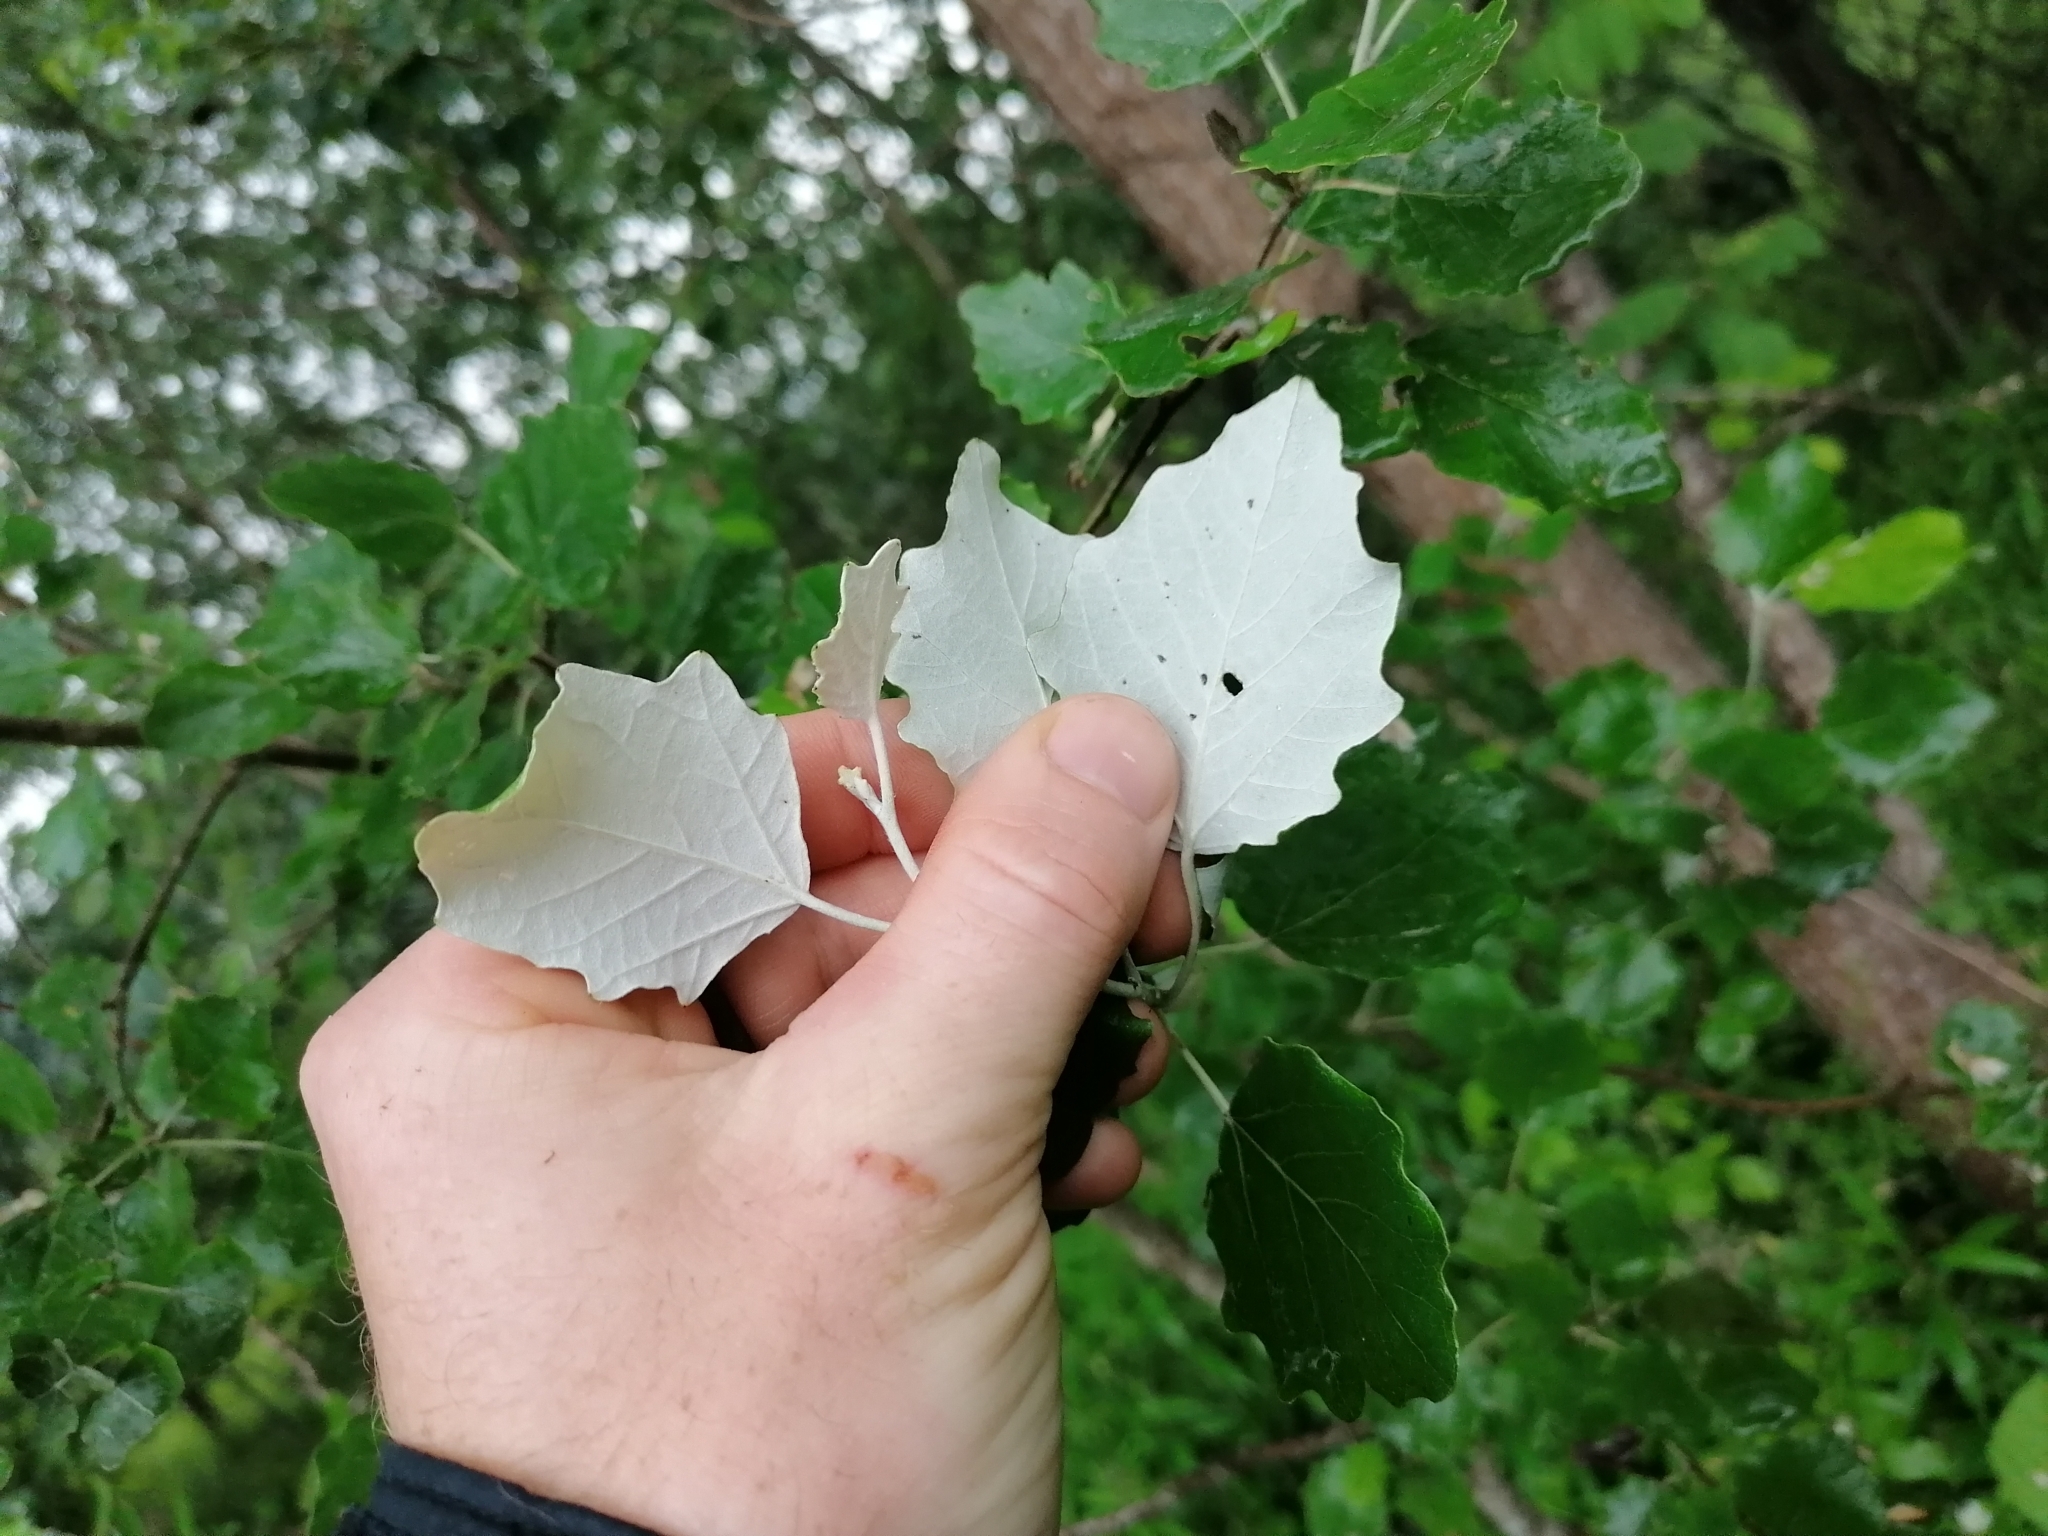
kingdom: Plantae
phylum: Tracheophyta
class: Magnoliopsida
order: Malpighiales
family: Salicaceae
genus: Populus
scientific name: Populus alba
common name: White poplar
